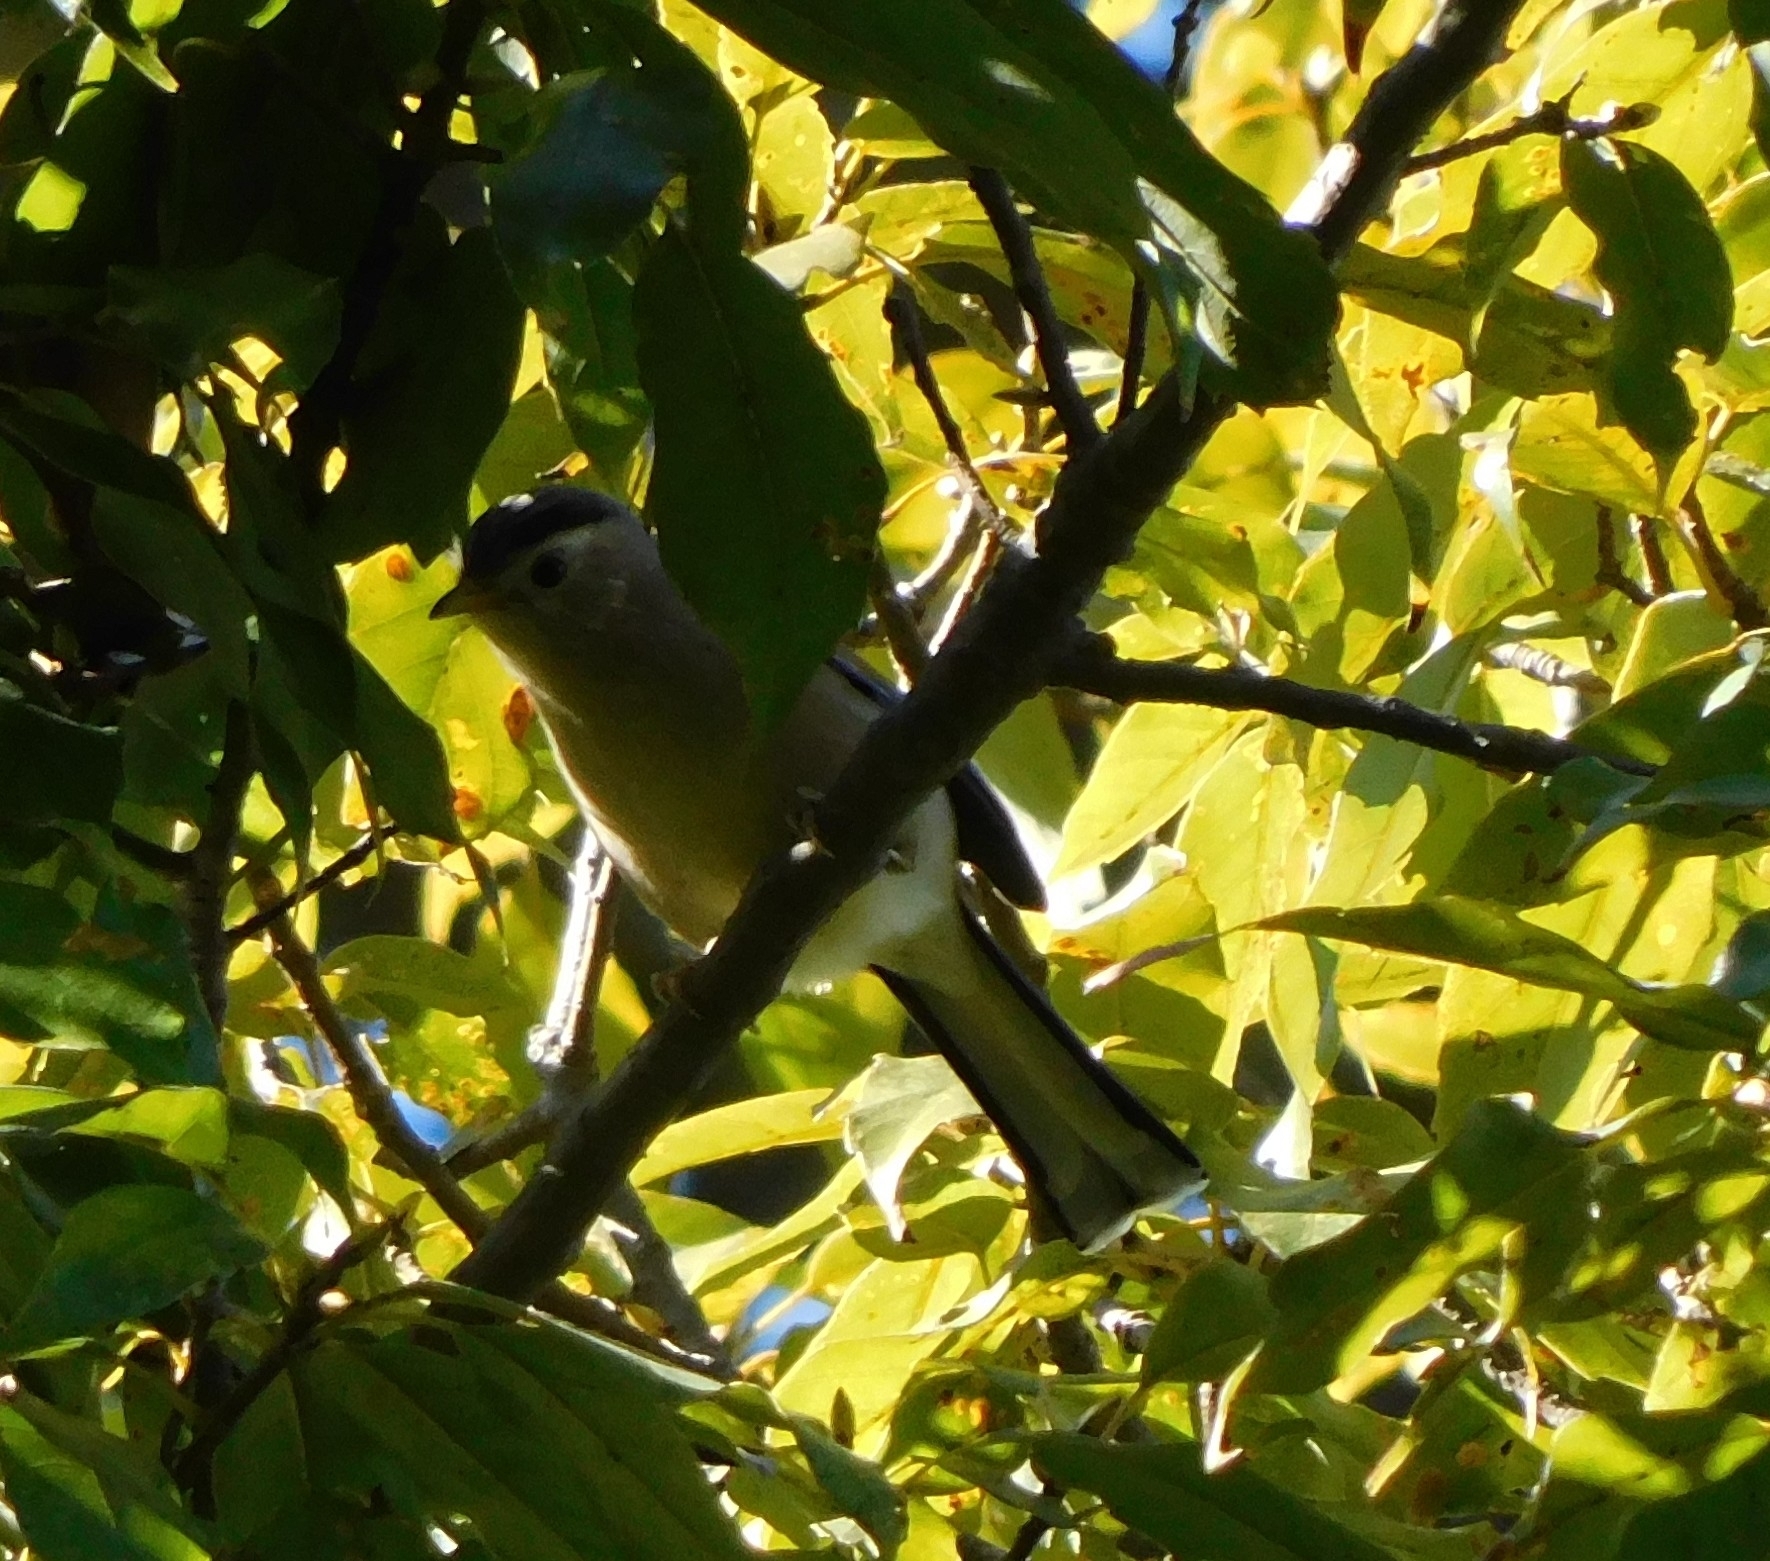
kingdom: Animalia
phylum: Chordata
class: Aves
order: Passeriformes
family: Leiothrichidae
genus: Minla
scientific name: Minla cyanouroptera
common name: Blue-winged minla
